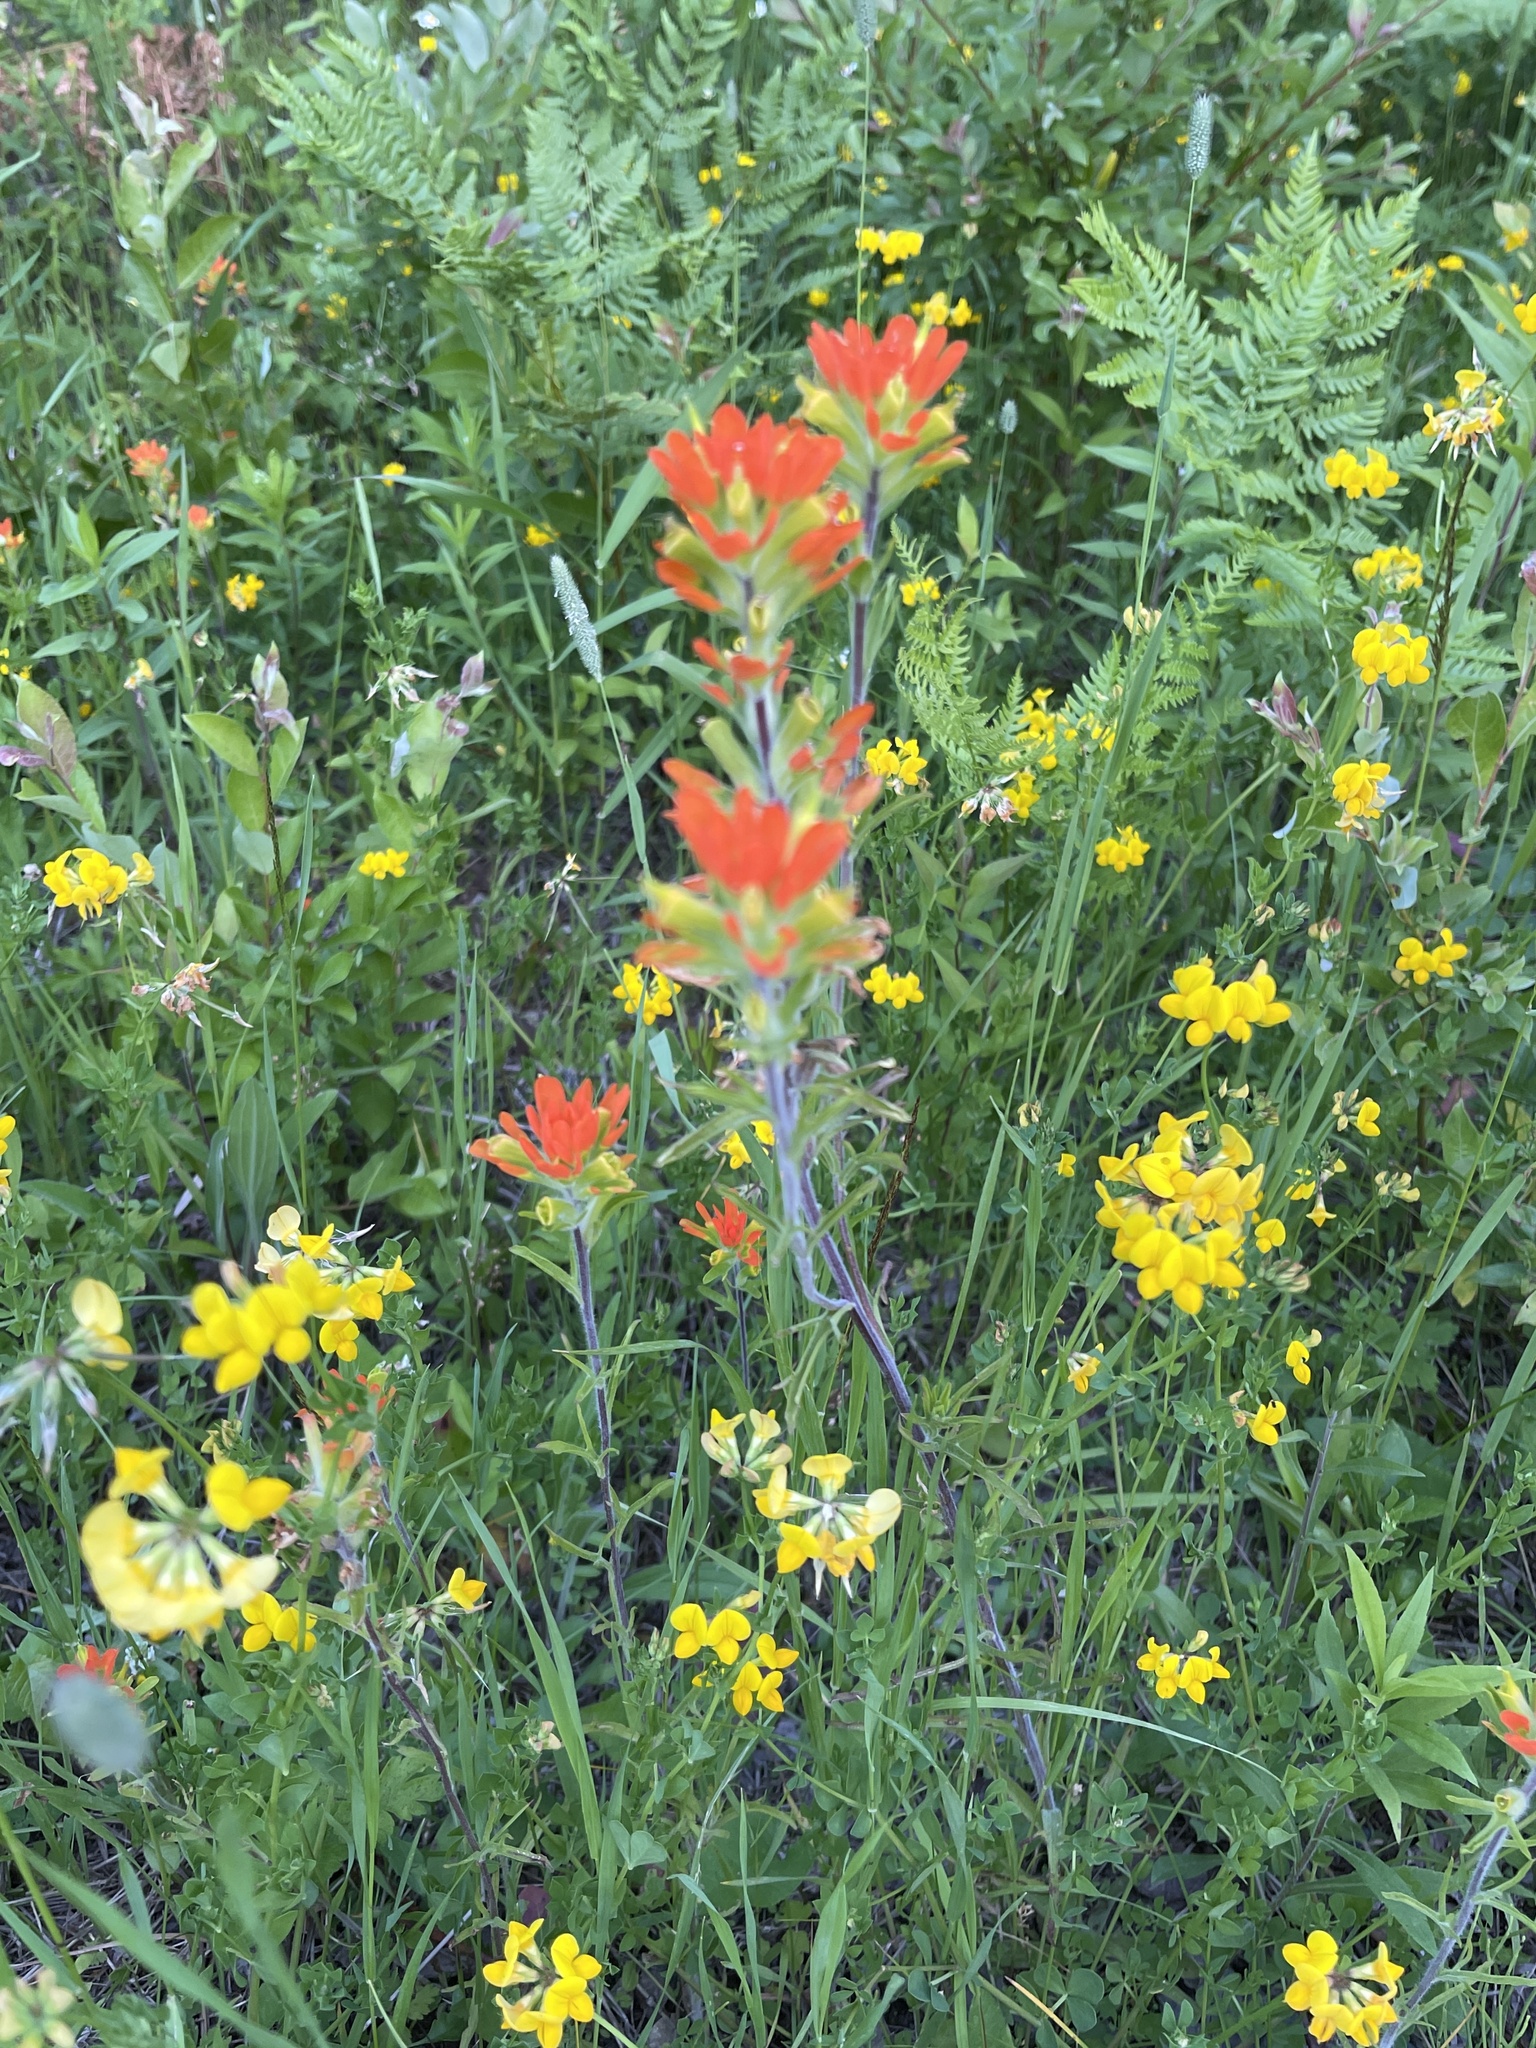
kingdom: Plantae
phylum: Tracheophyta
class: Magnoliopsida
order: Lamiales
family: Orobanchaceae
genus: Castilleja
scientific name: Castilleja coccinea
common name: Scarlet paintbrush
